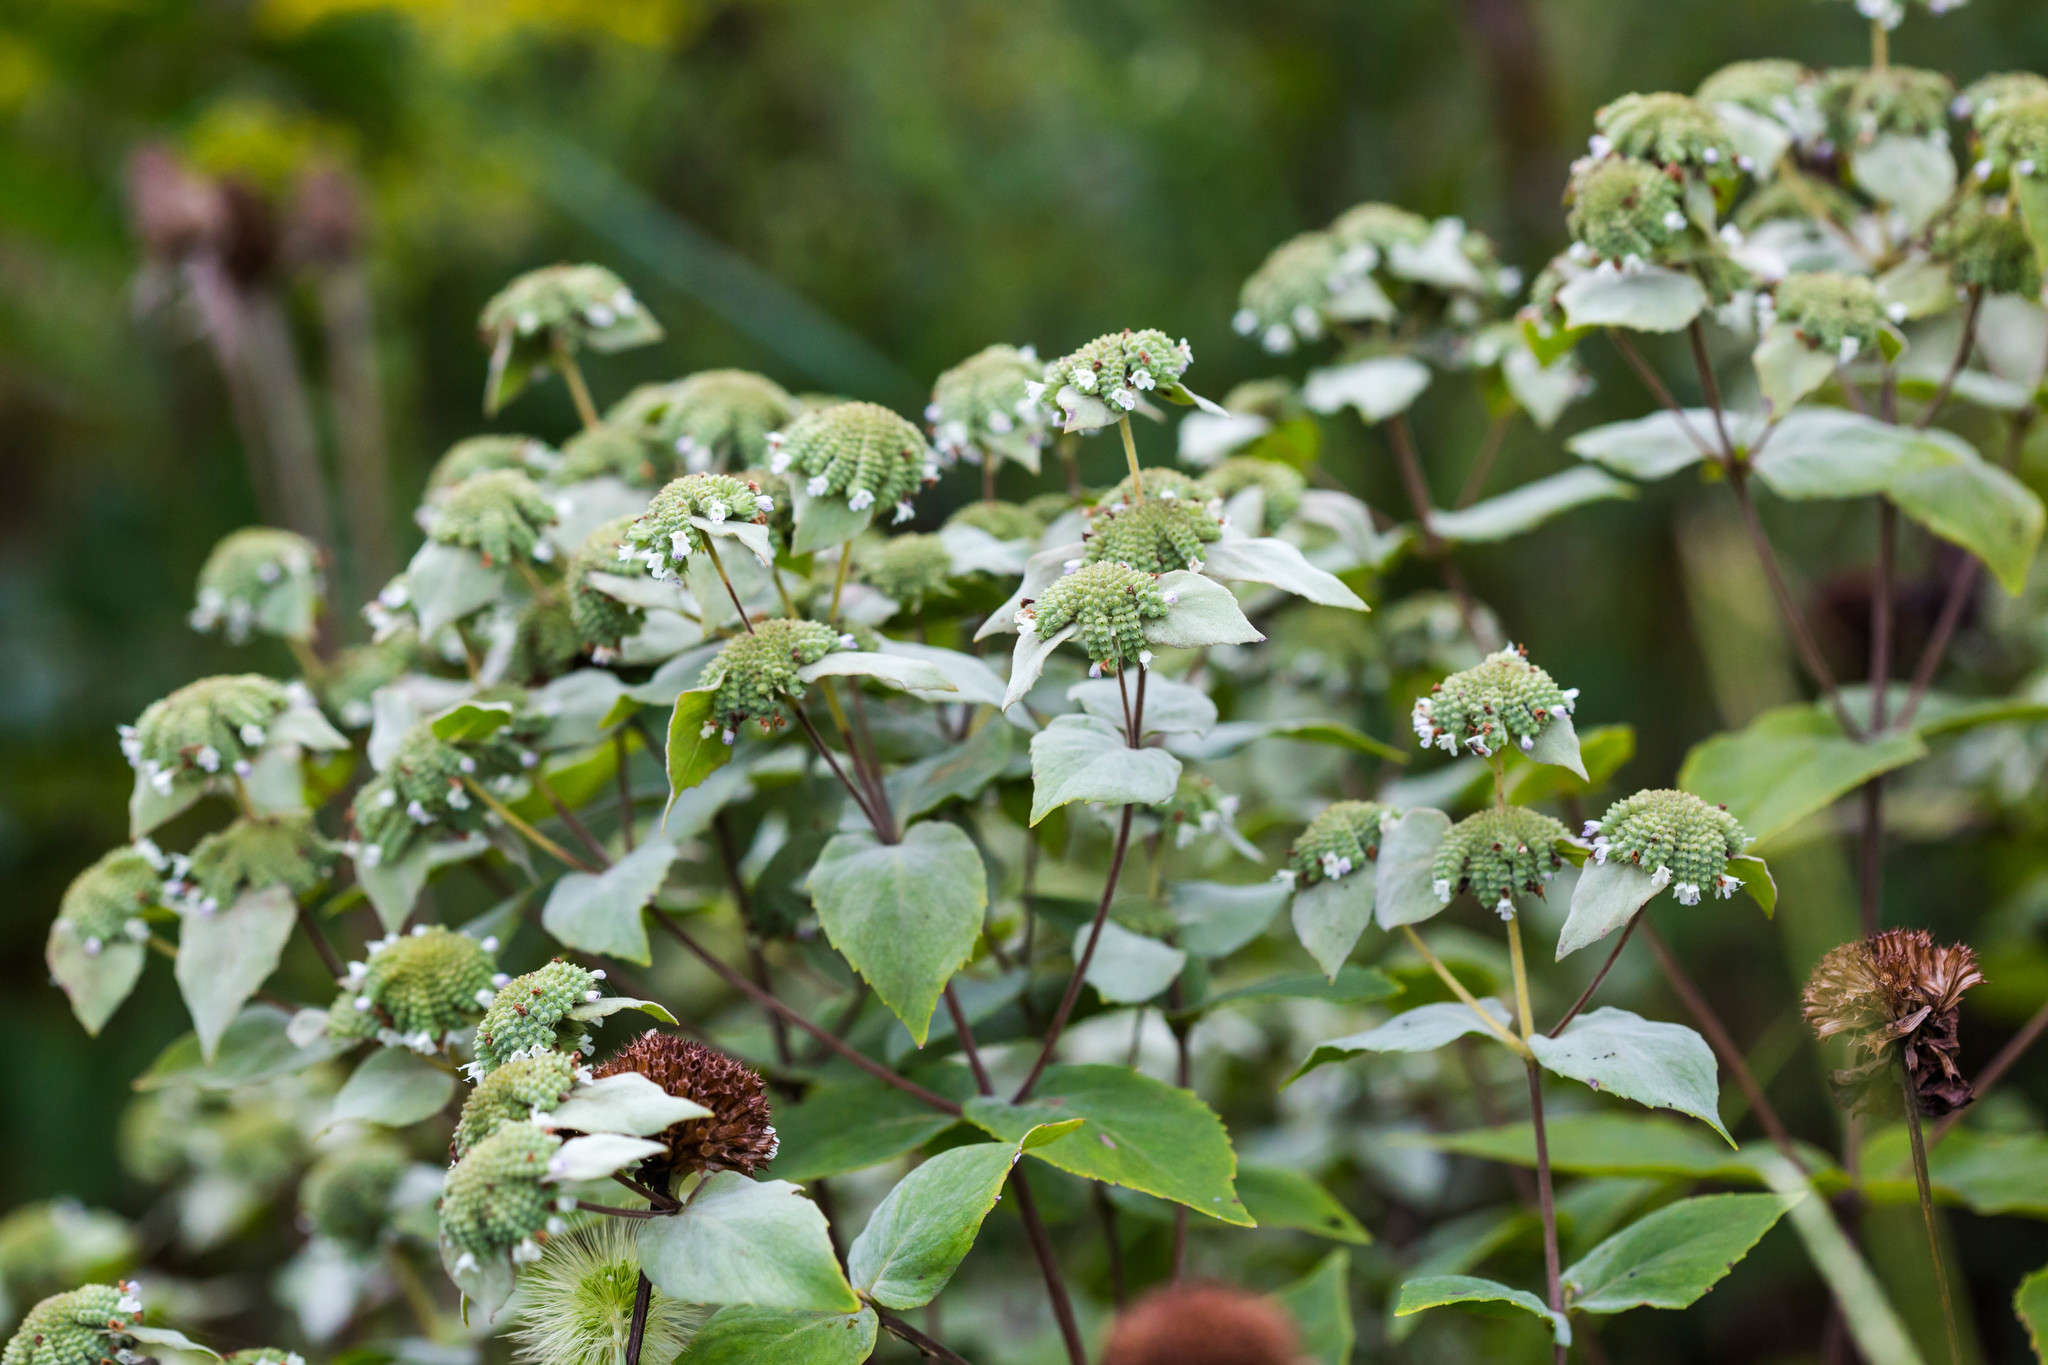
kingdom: Plantae
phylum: Tracheophyta
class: Magnoliopsida
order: Lamiales
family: Lamiaceae
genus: Pycnanthemum
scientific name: Pycnanthemum muticum
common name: Blunt mountain-mint
